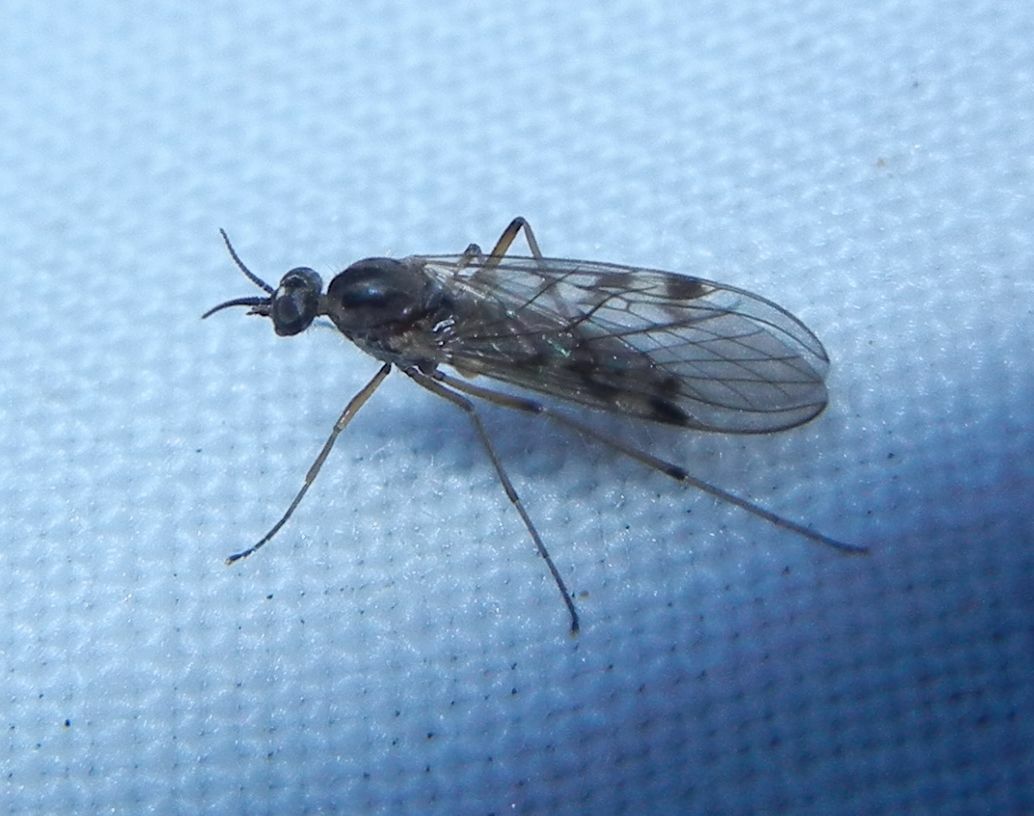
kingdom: Animalia
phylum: Arthropoda
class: Insecta
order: Diptera
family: Anisopodidae
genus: Sylvicola
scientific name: Sylvicola punctatus
